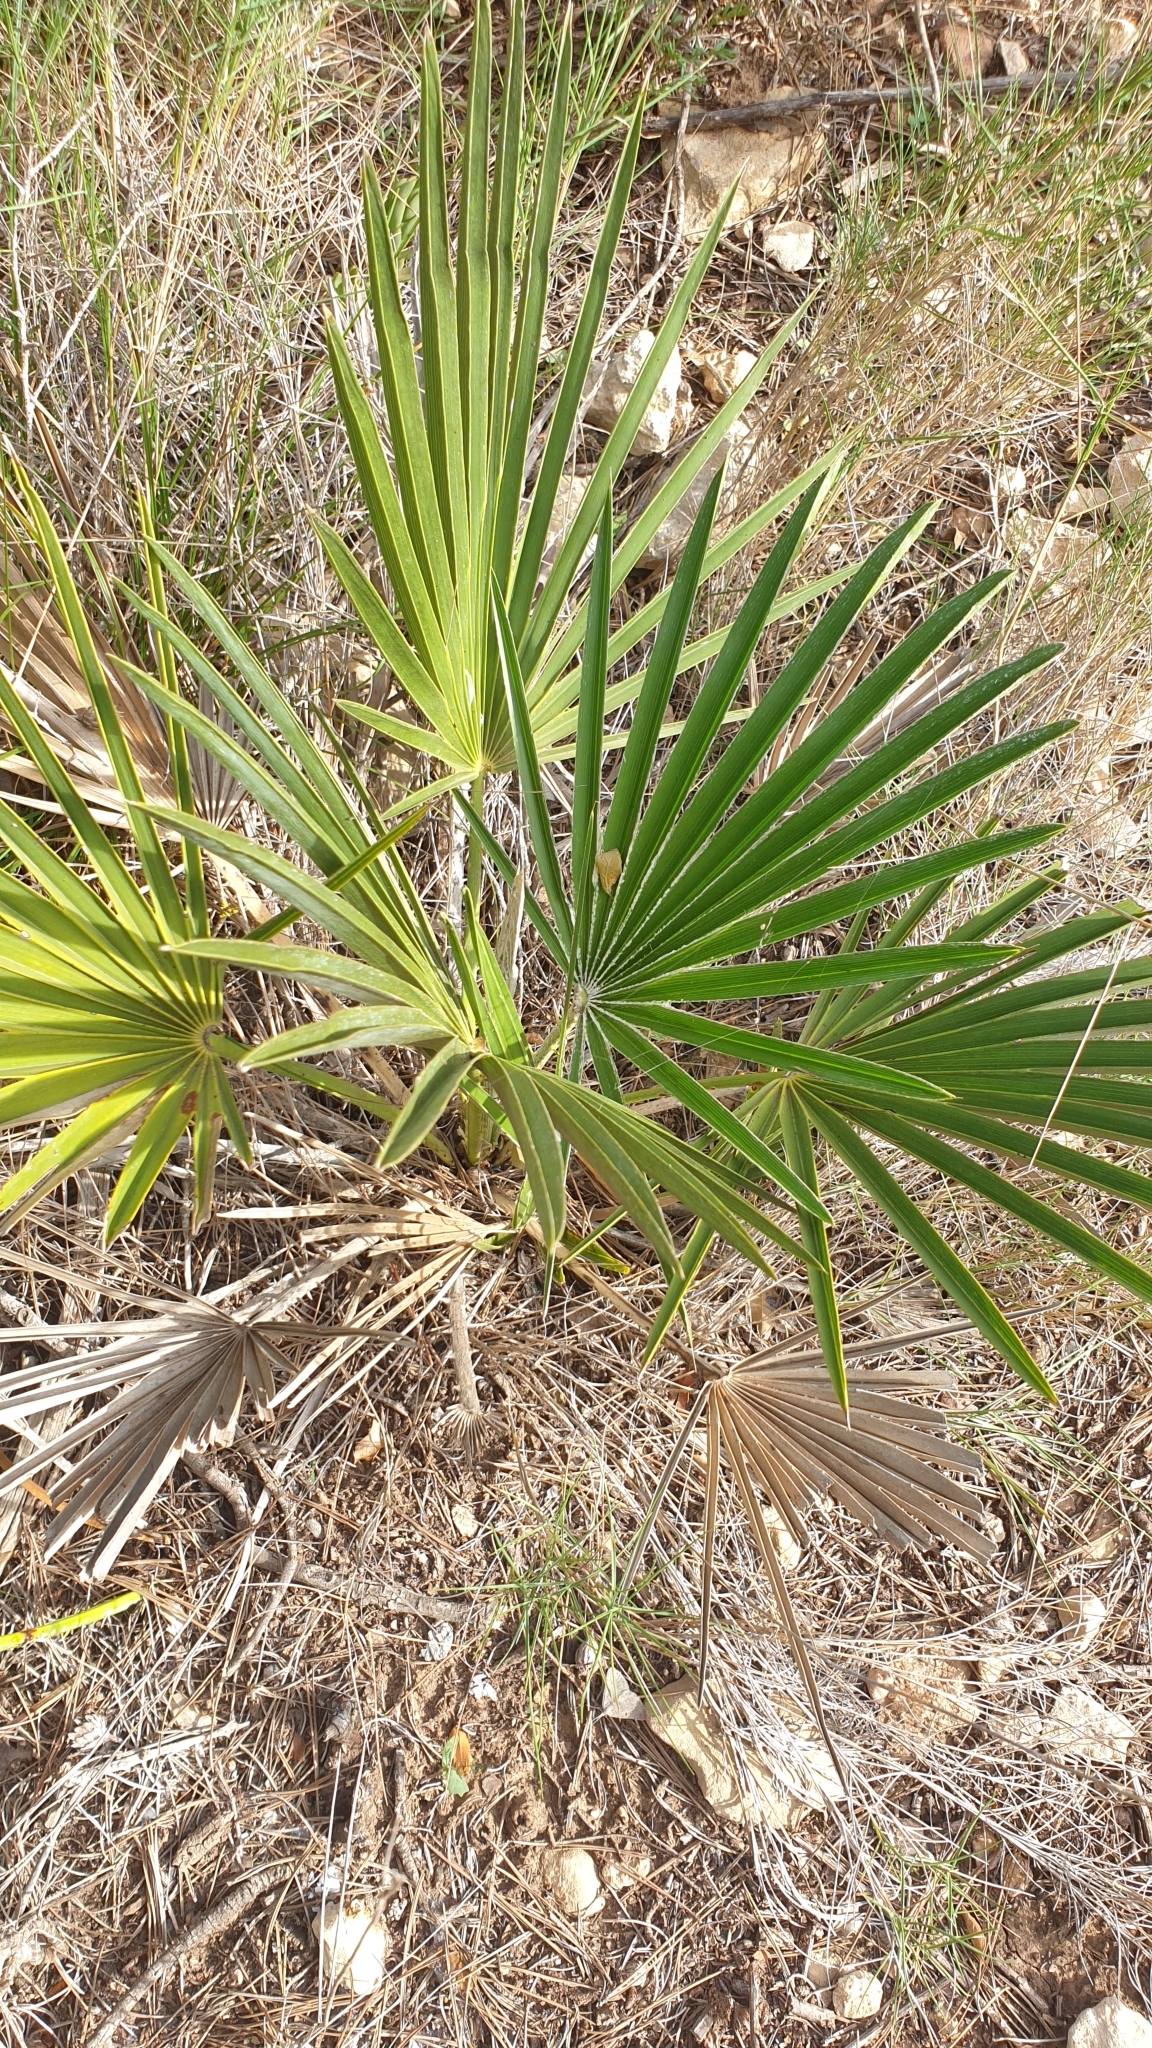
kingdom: Plantae
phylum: Tracheophyta
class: Liliopsida
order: Arecales
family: Arecaceae
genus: Chamaerops
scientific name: Chamaerops humilis
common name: Dwarf fan palm
